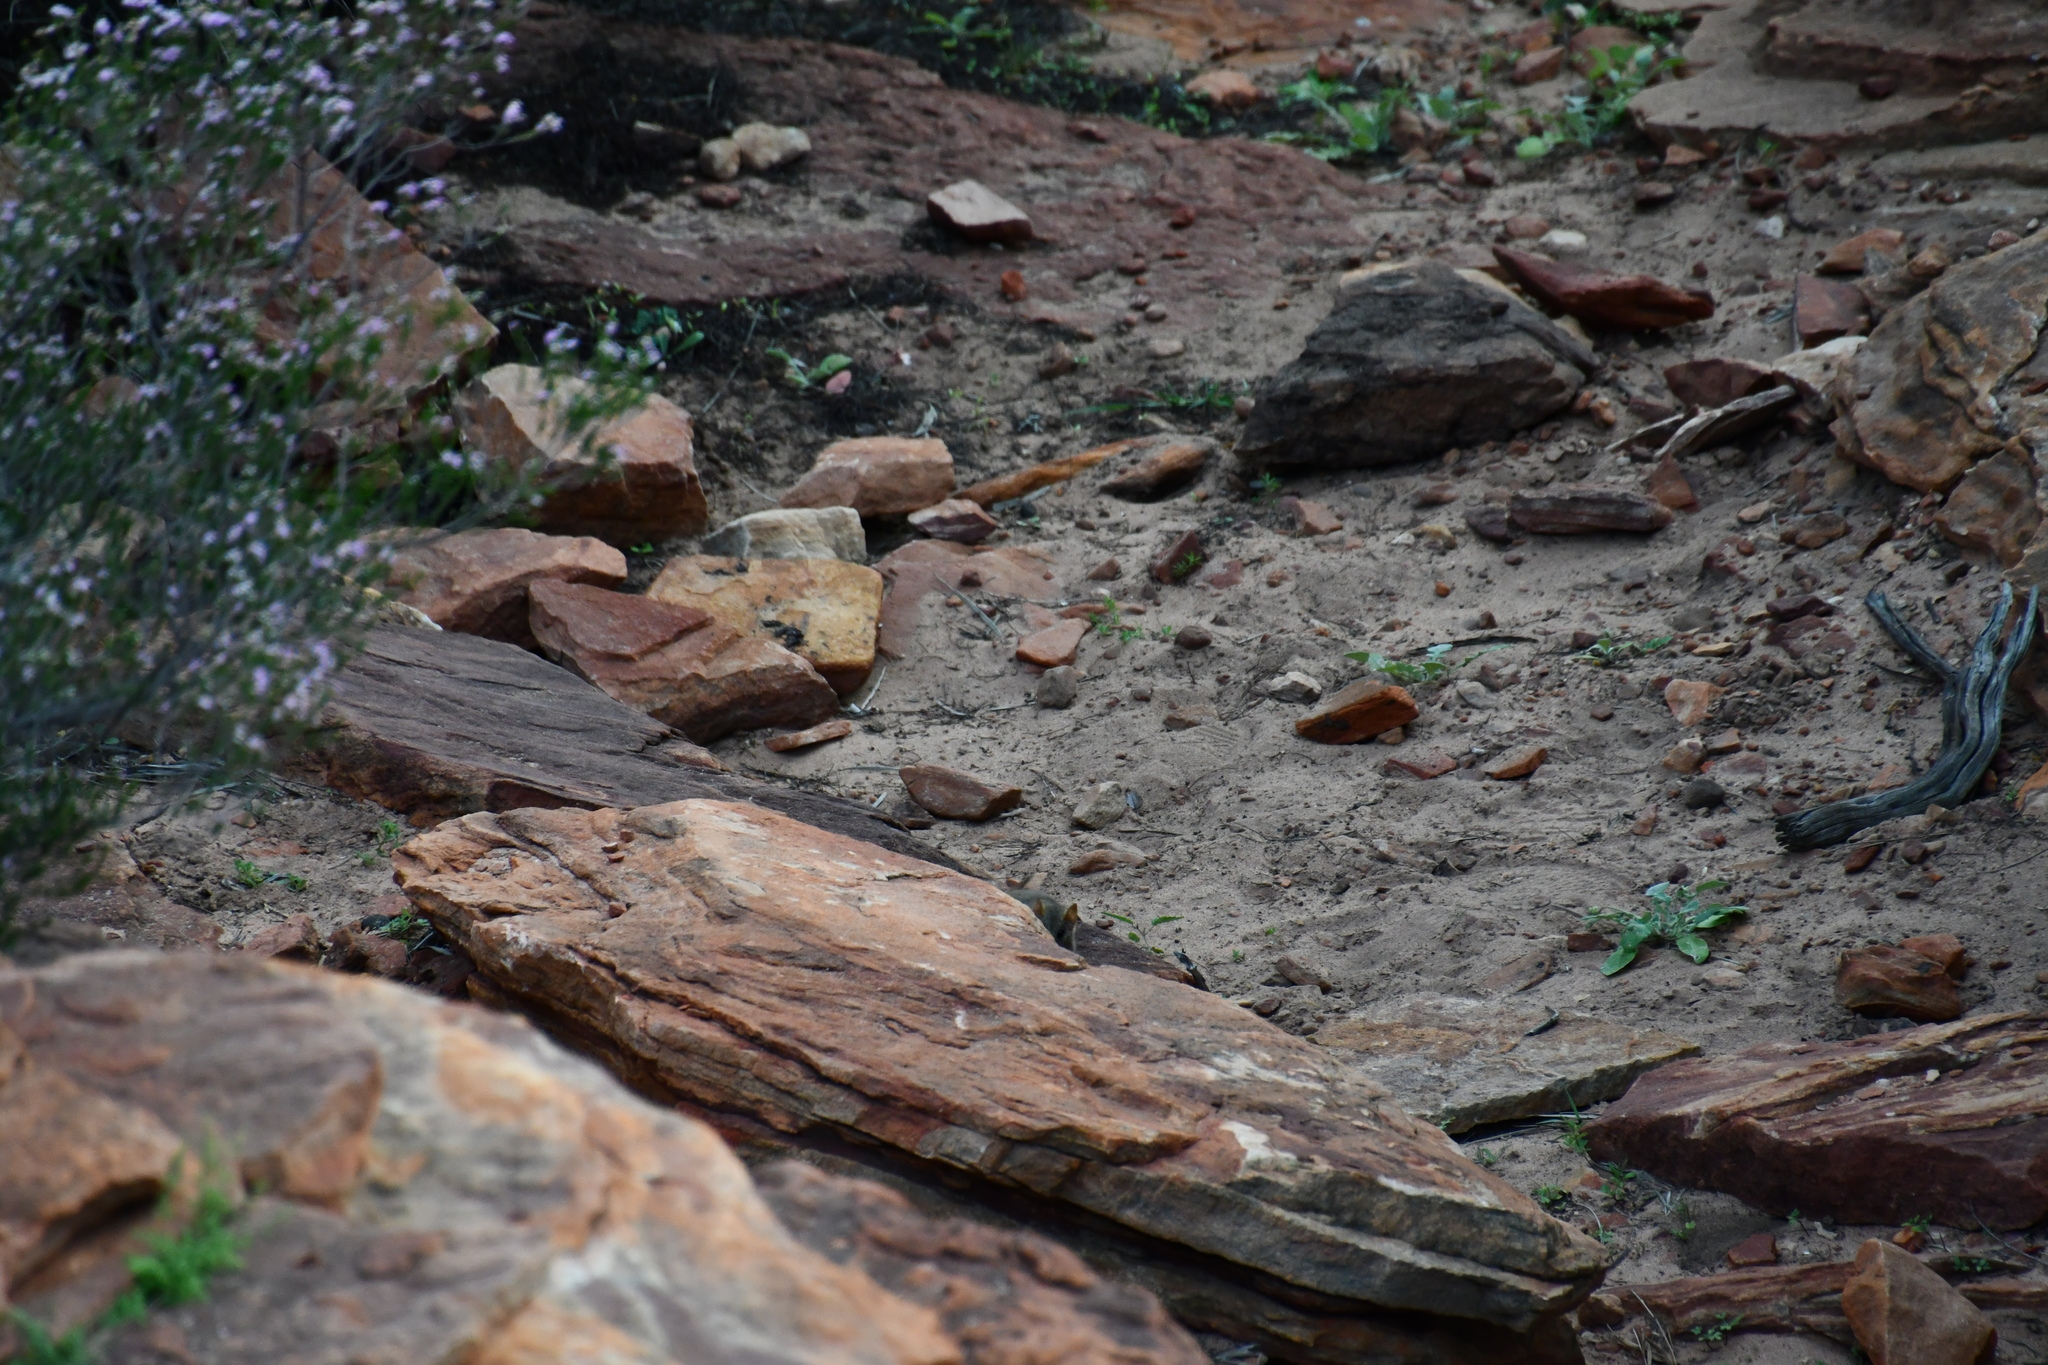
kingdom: Animalia
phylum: Chordata
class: Mammalia
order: Dasyuromorphia
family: Dasyuridae
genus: Pseudantechinus
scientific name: Pseudantechinus woolleyae
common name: Woolley's false antechinus
